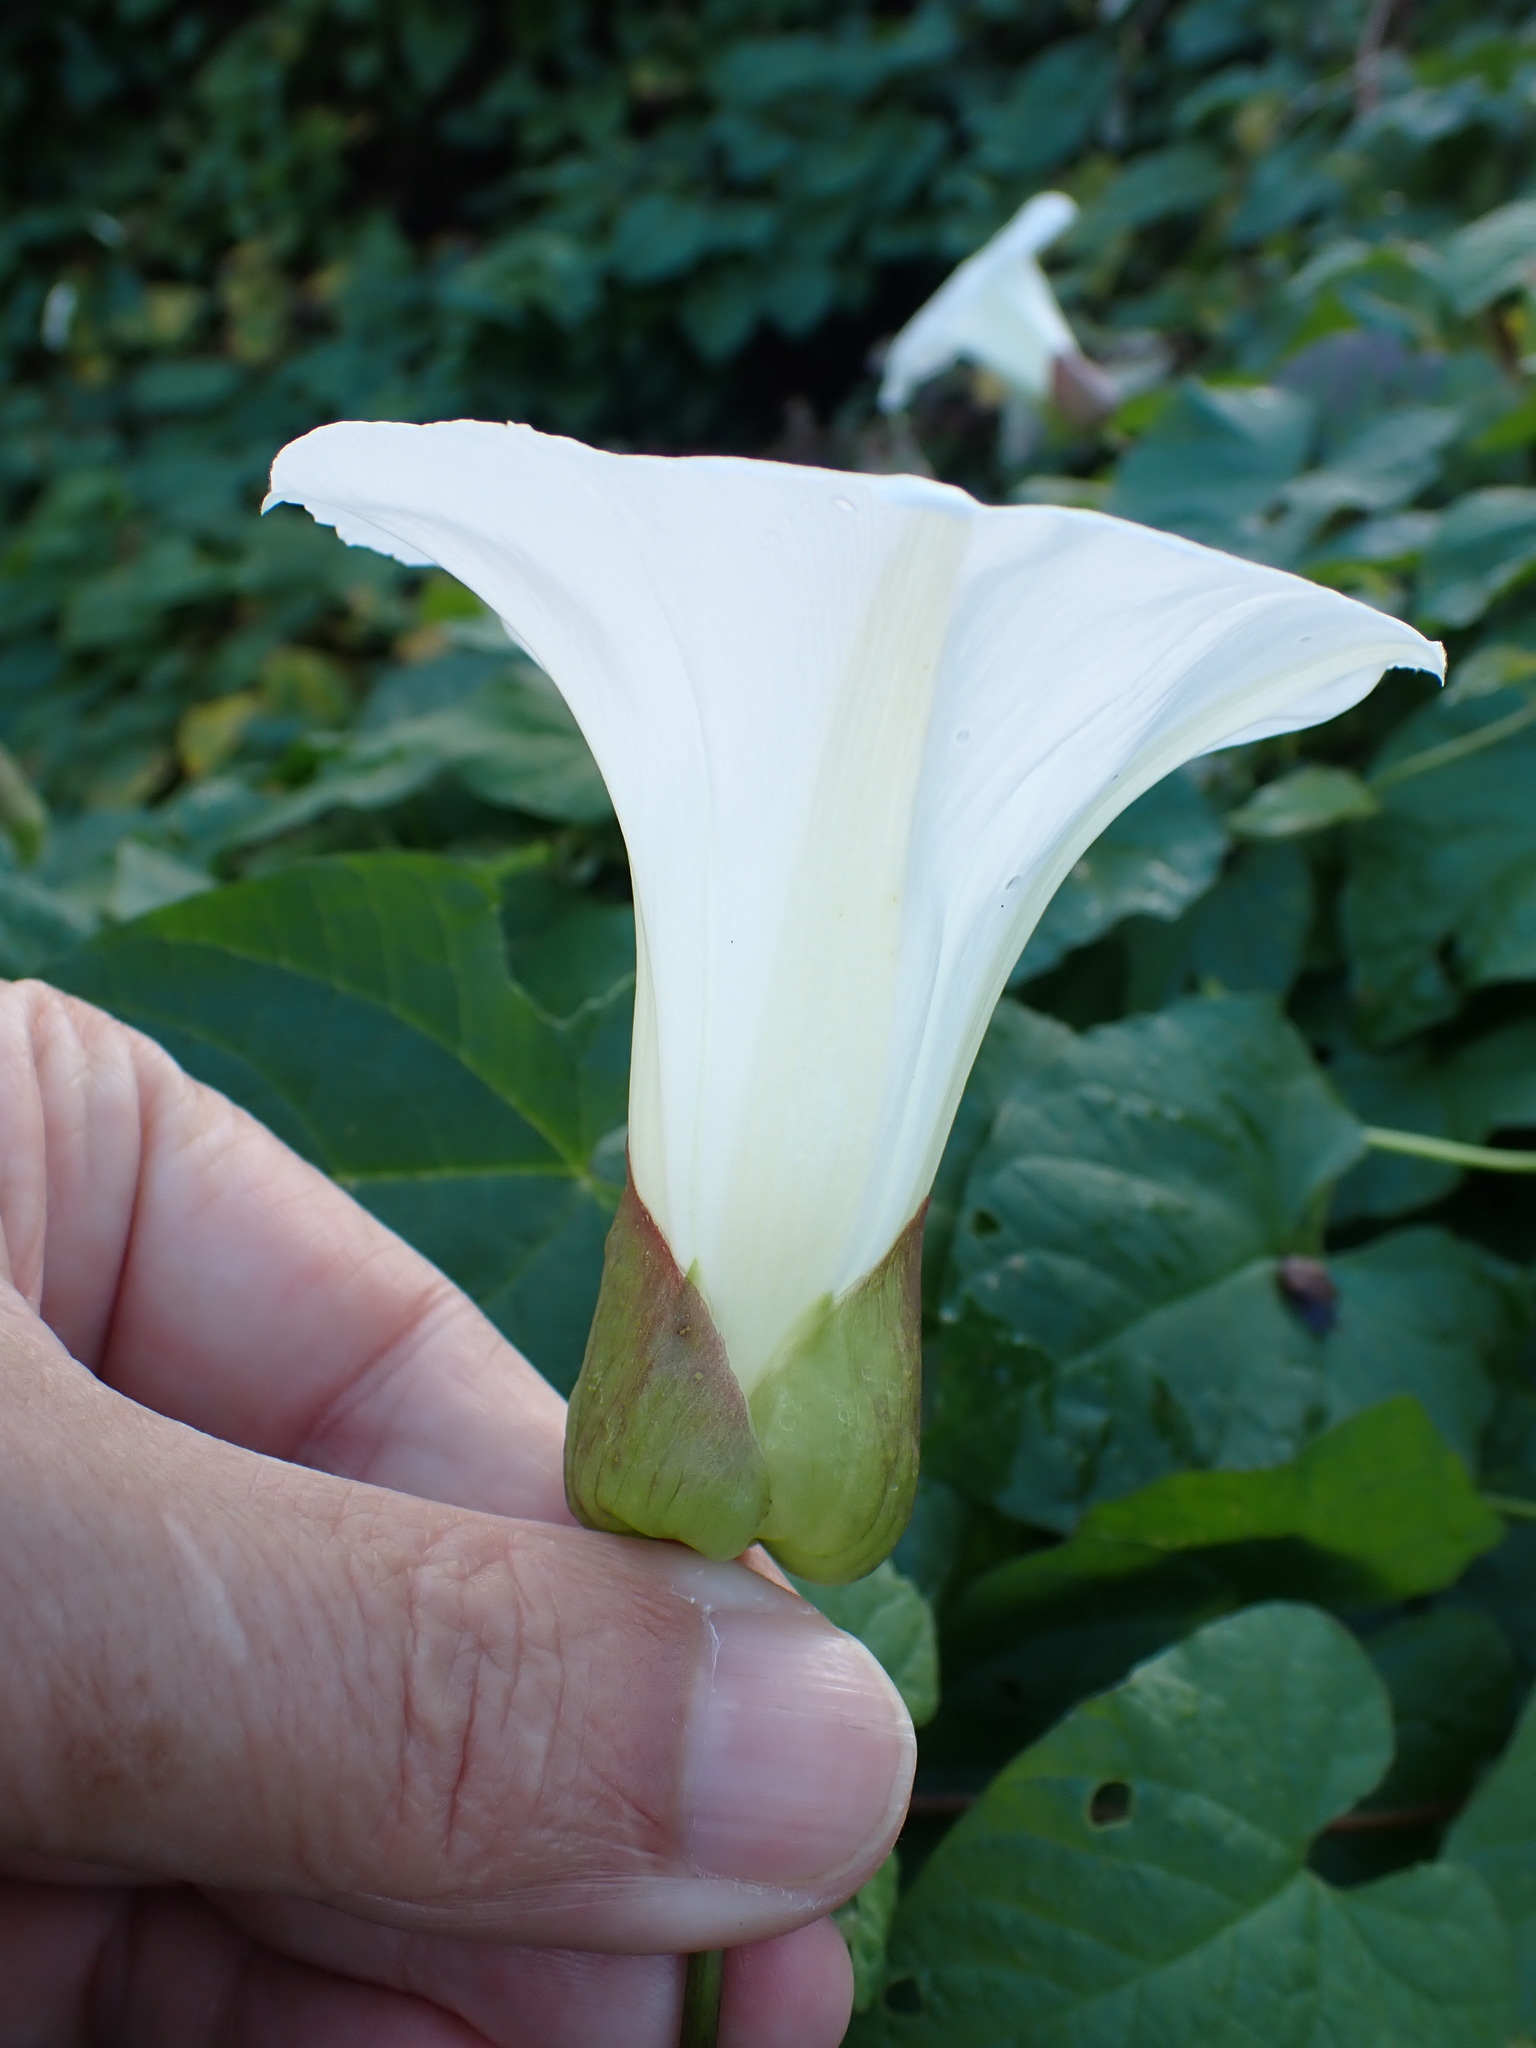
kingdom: Plantae
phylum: Tracheophyta
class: Magnoliopsida
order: Solanales
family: Convolvulaceae
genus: Calystegia
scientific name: Calystegia silvatica
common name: Large bindweed
